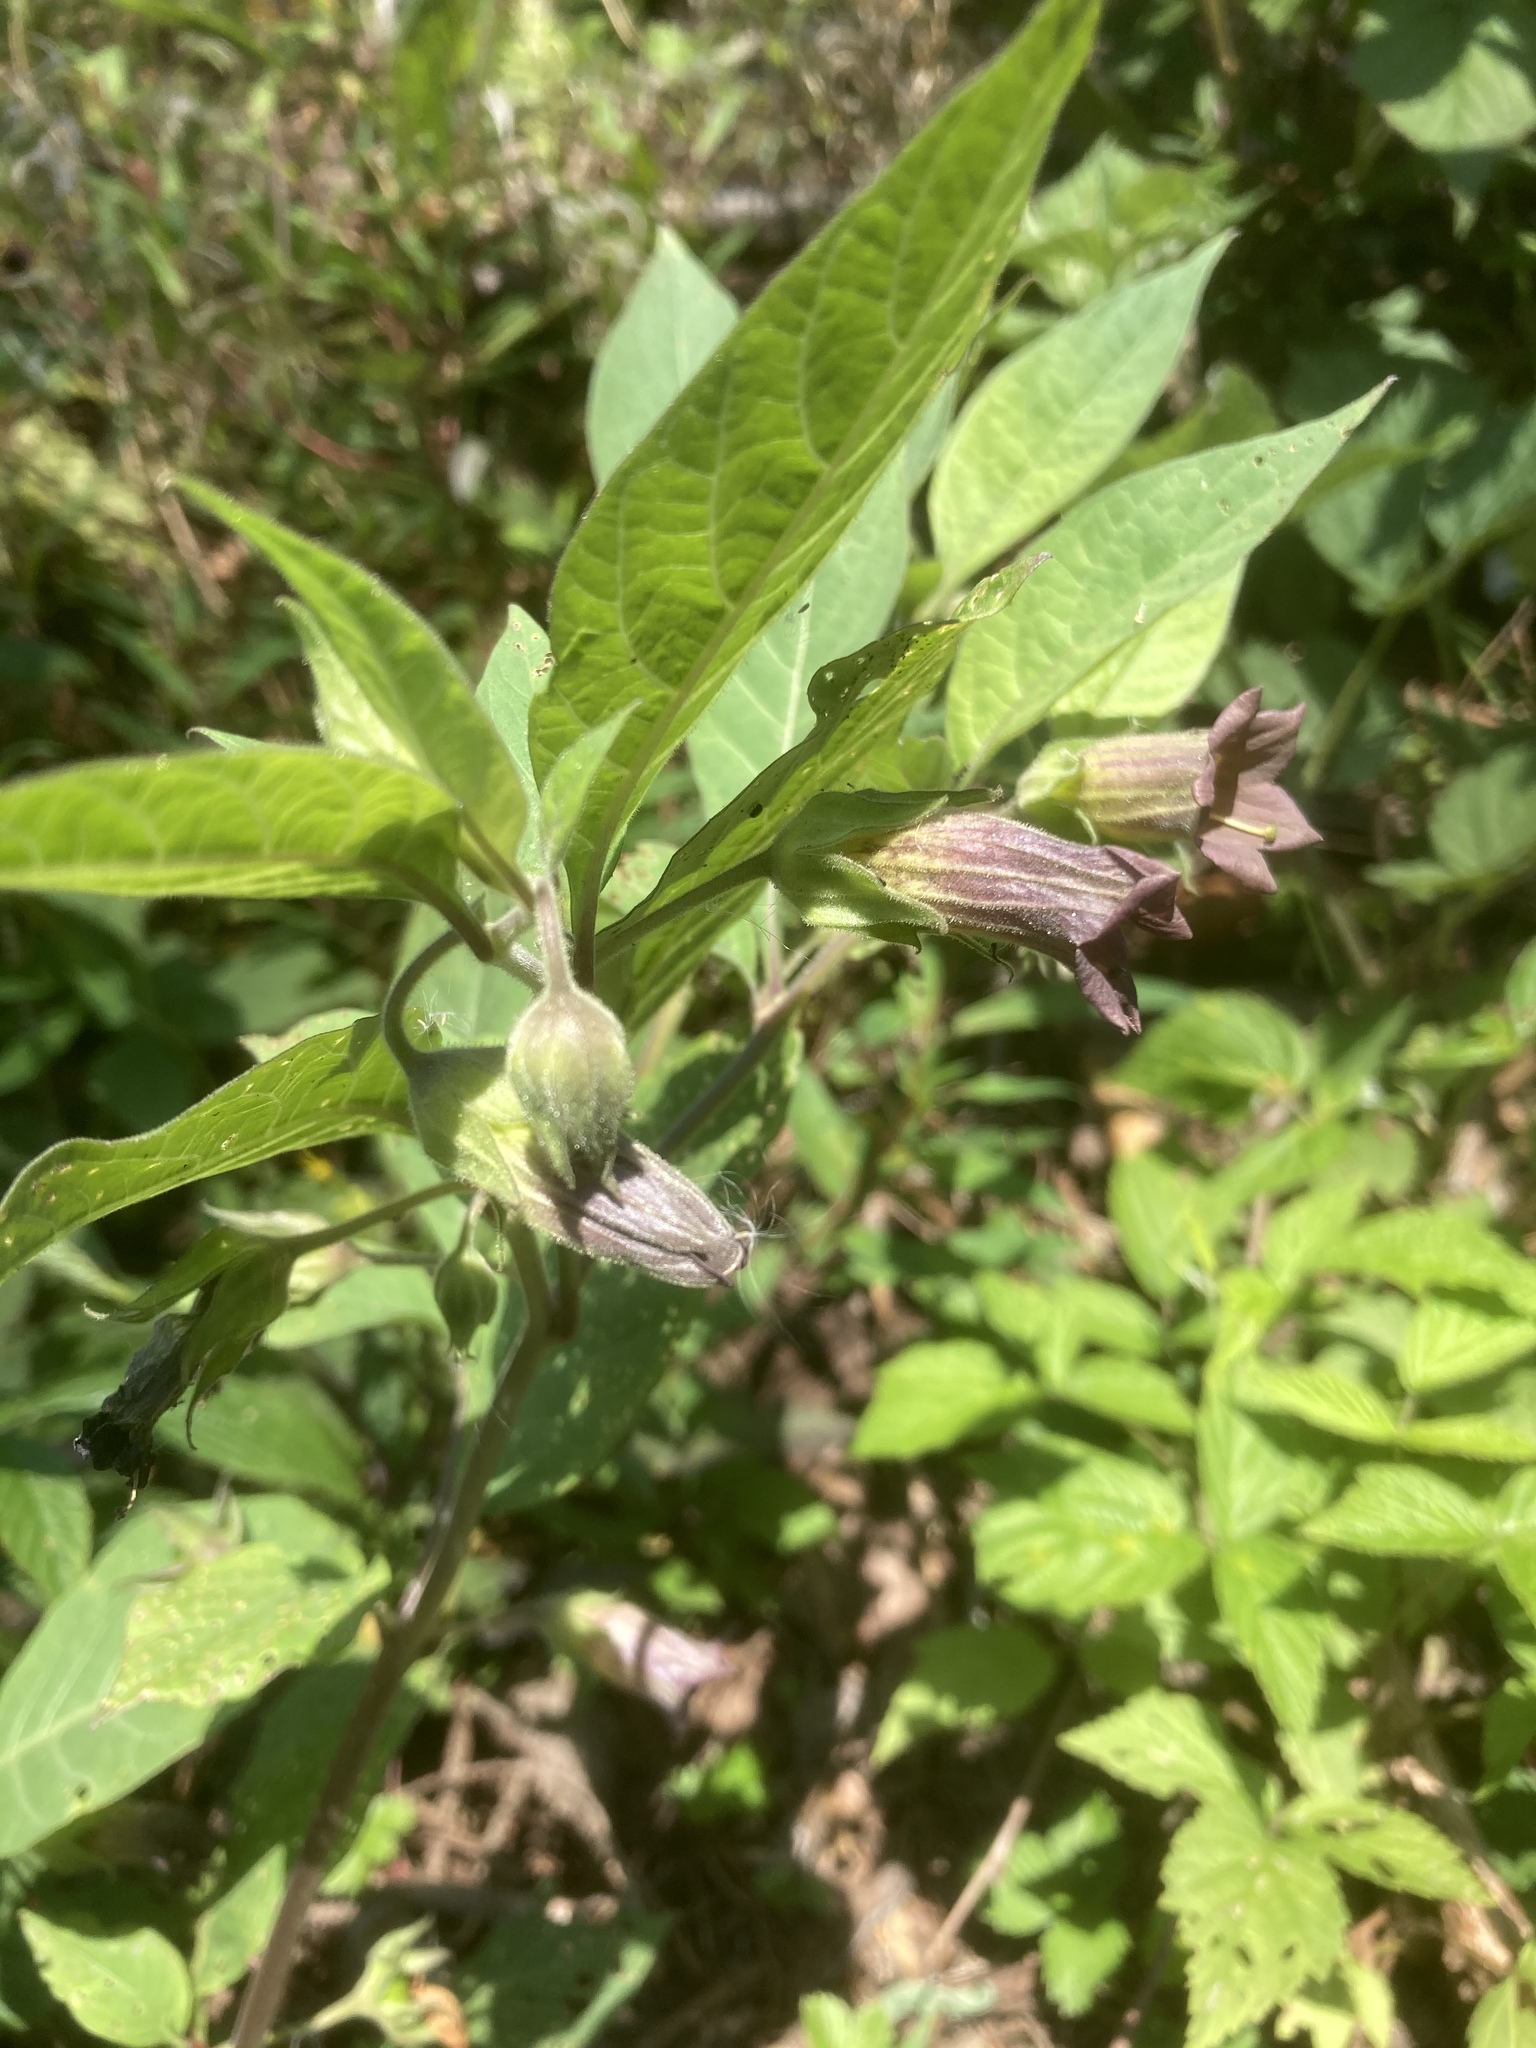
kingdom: Plantae
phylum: Tracheophyta
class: Magnoliopsida
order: Solanales
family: Solanaceae
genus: Atropa
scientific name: Atropa belladonna
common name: Deadly nightshade
